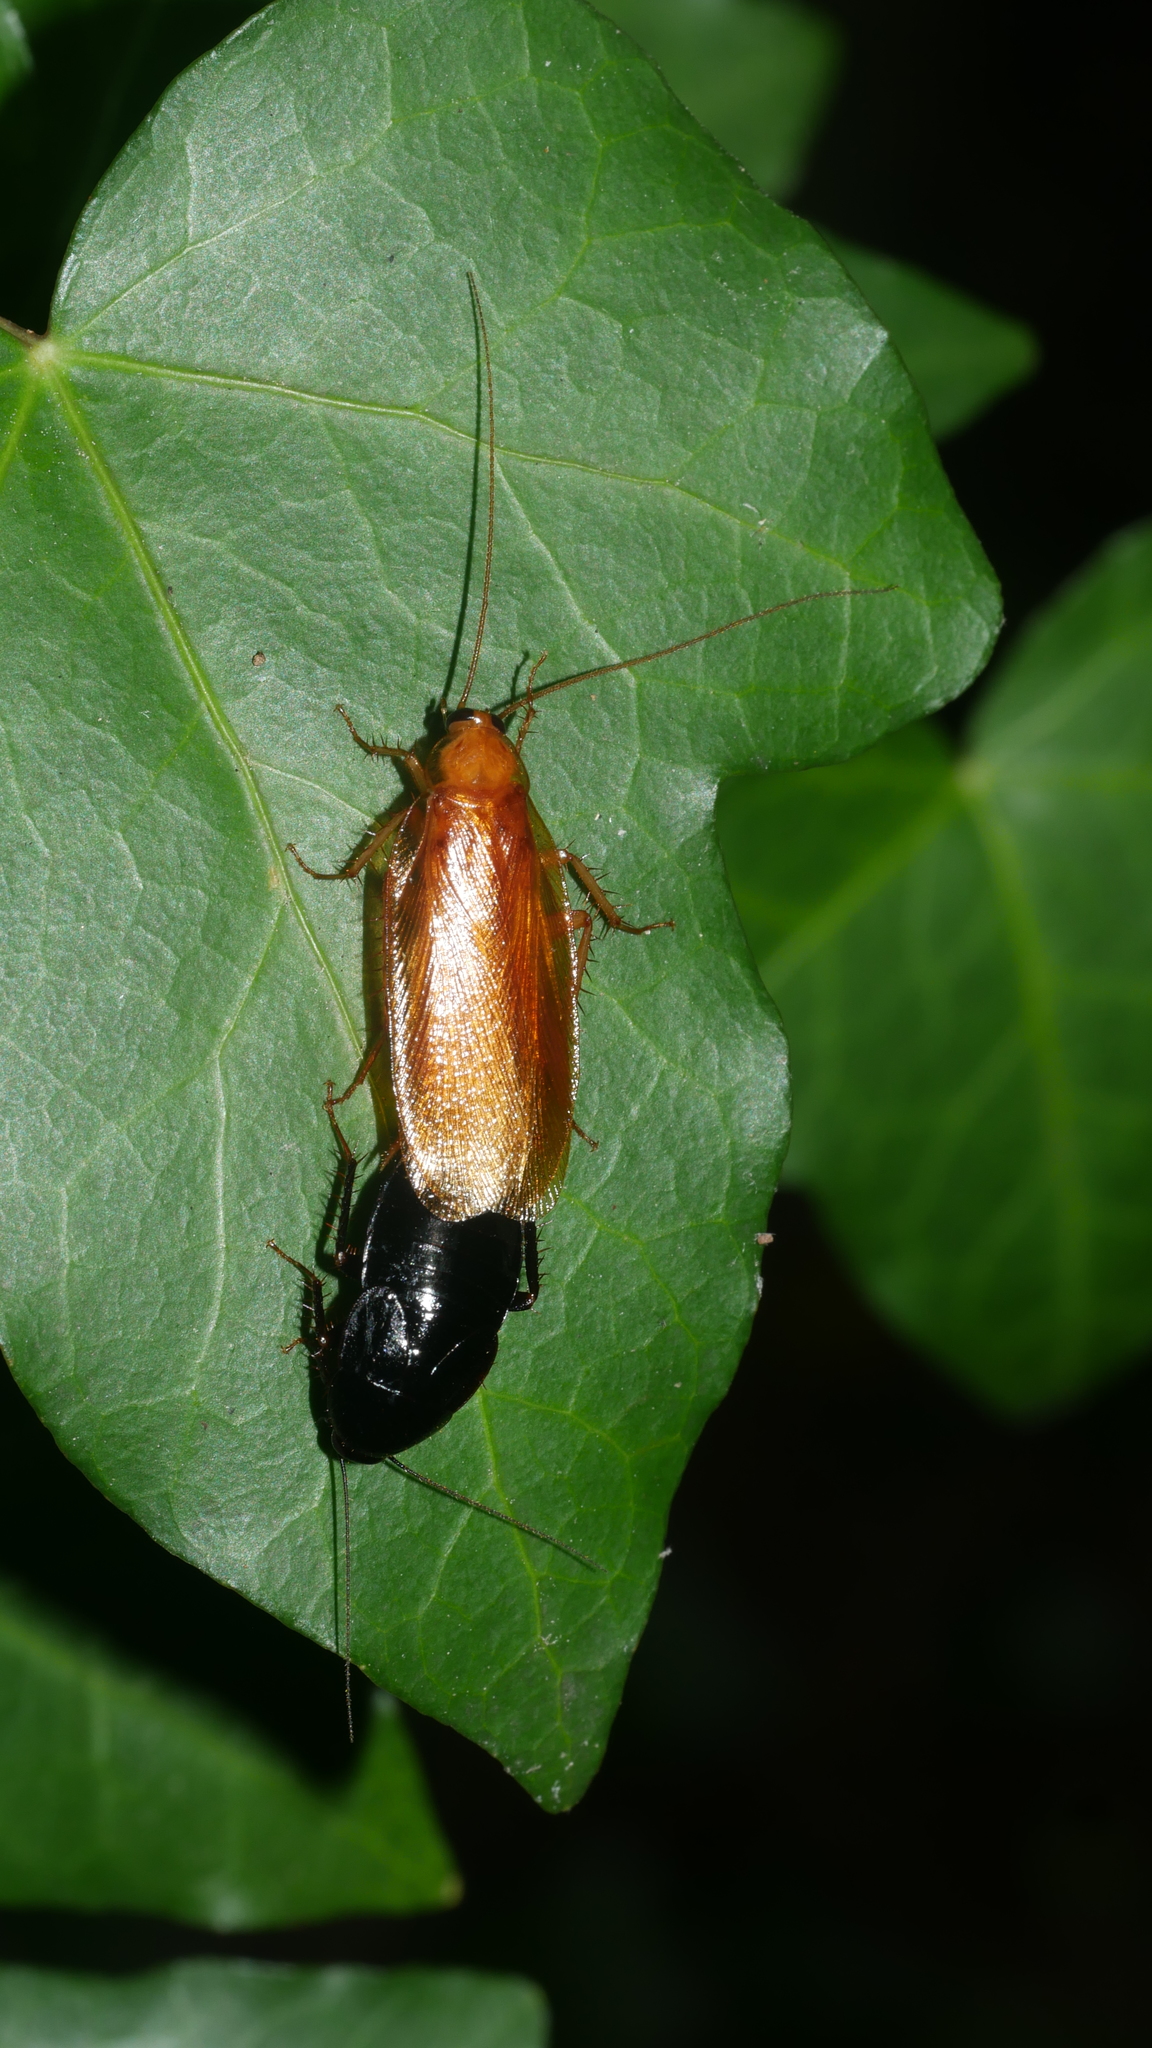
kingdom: Animalia
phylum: Arthropoda
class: Insecta
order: Blattodea
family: Ectobiidae
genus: Parcoblatta
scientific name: Parcoblatta uhleriana
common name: Uhler's wood cockroach
